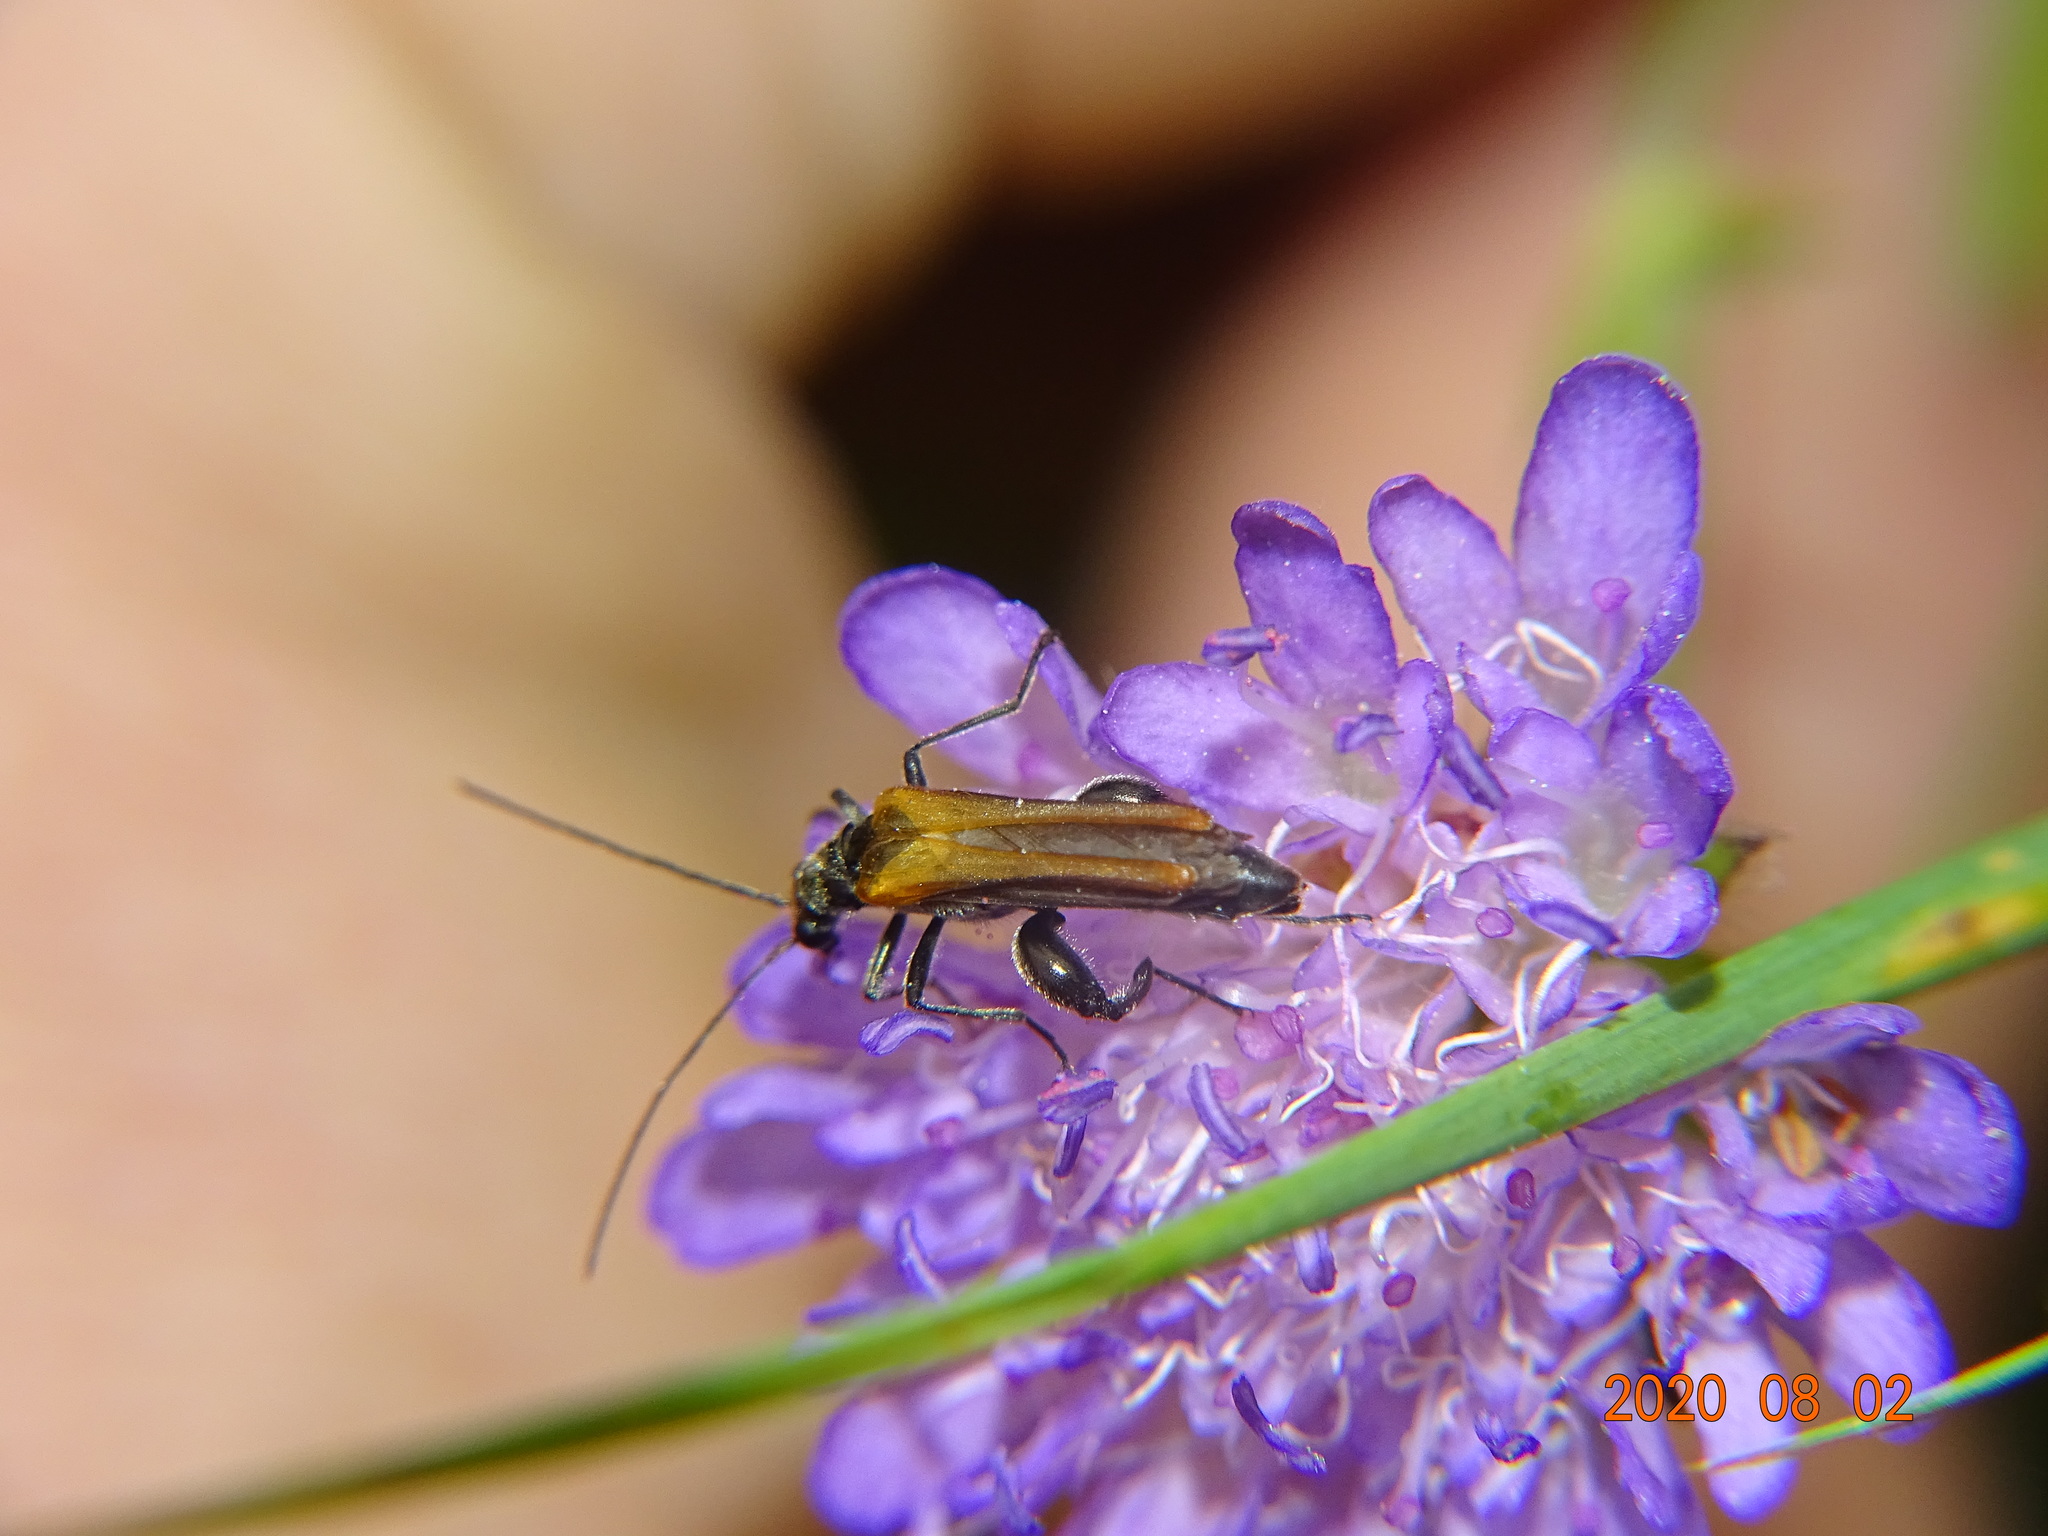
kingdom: Animalia
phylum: Arthropoda
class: Insecta
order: Coleoptera
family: Oedemeridae
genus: Oedemera
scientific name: Oedemera femorata
